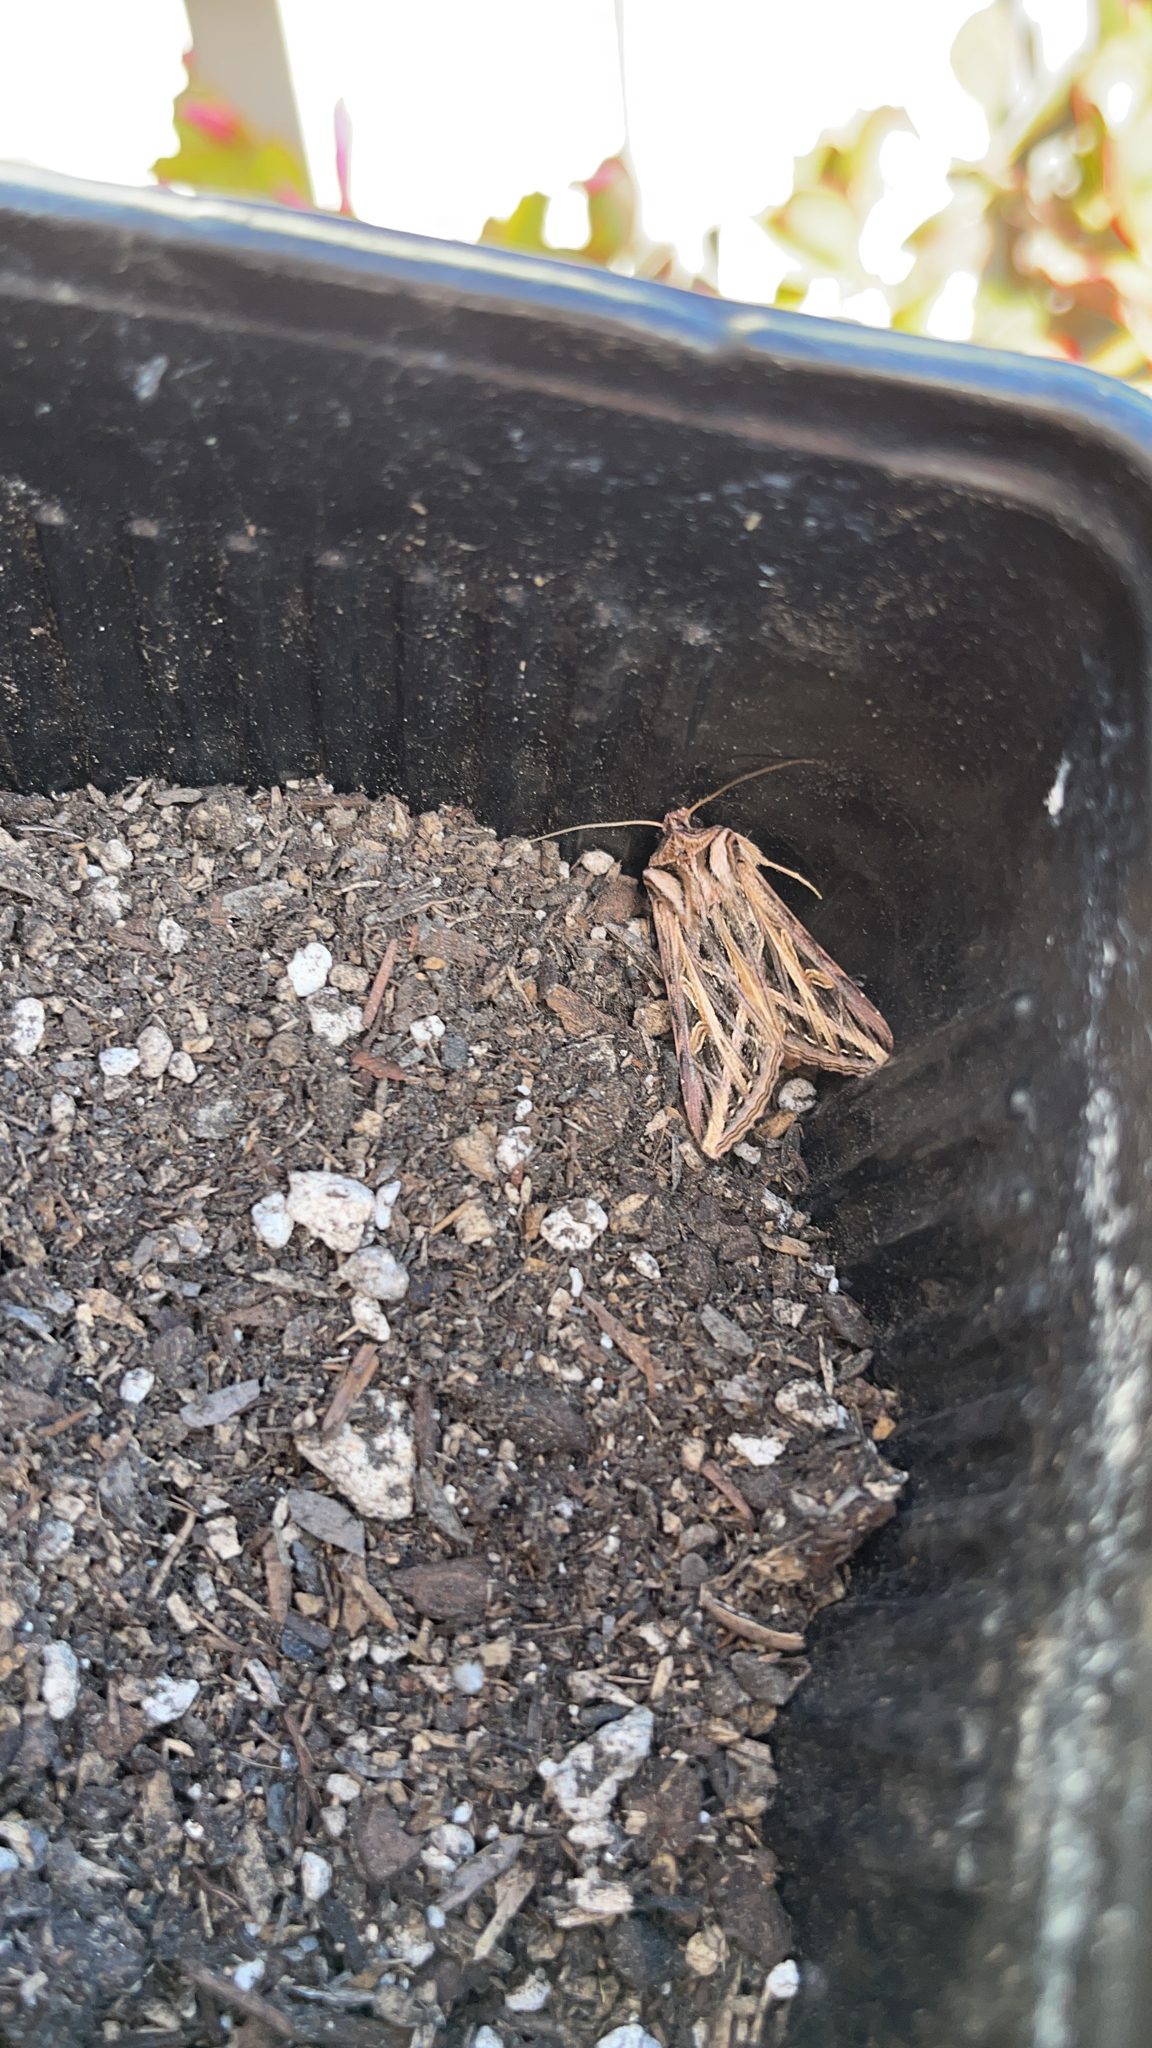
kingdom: Animalia
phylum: Arthropoda
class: Insecta
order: Lepidoptera
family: Noctuidae
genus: Dargida
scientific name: Dargida procinctus
